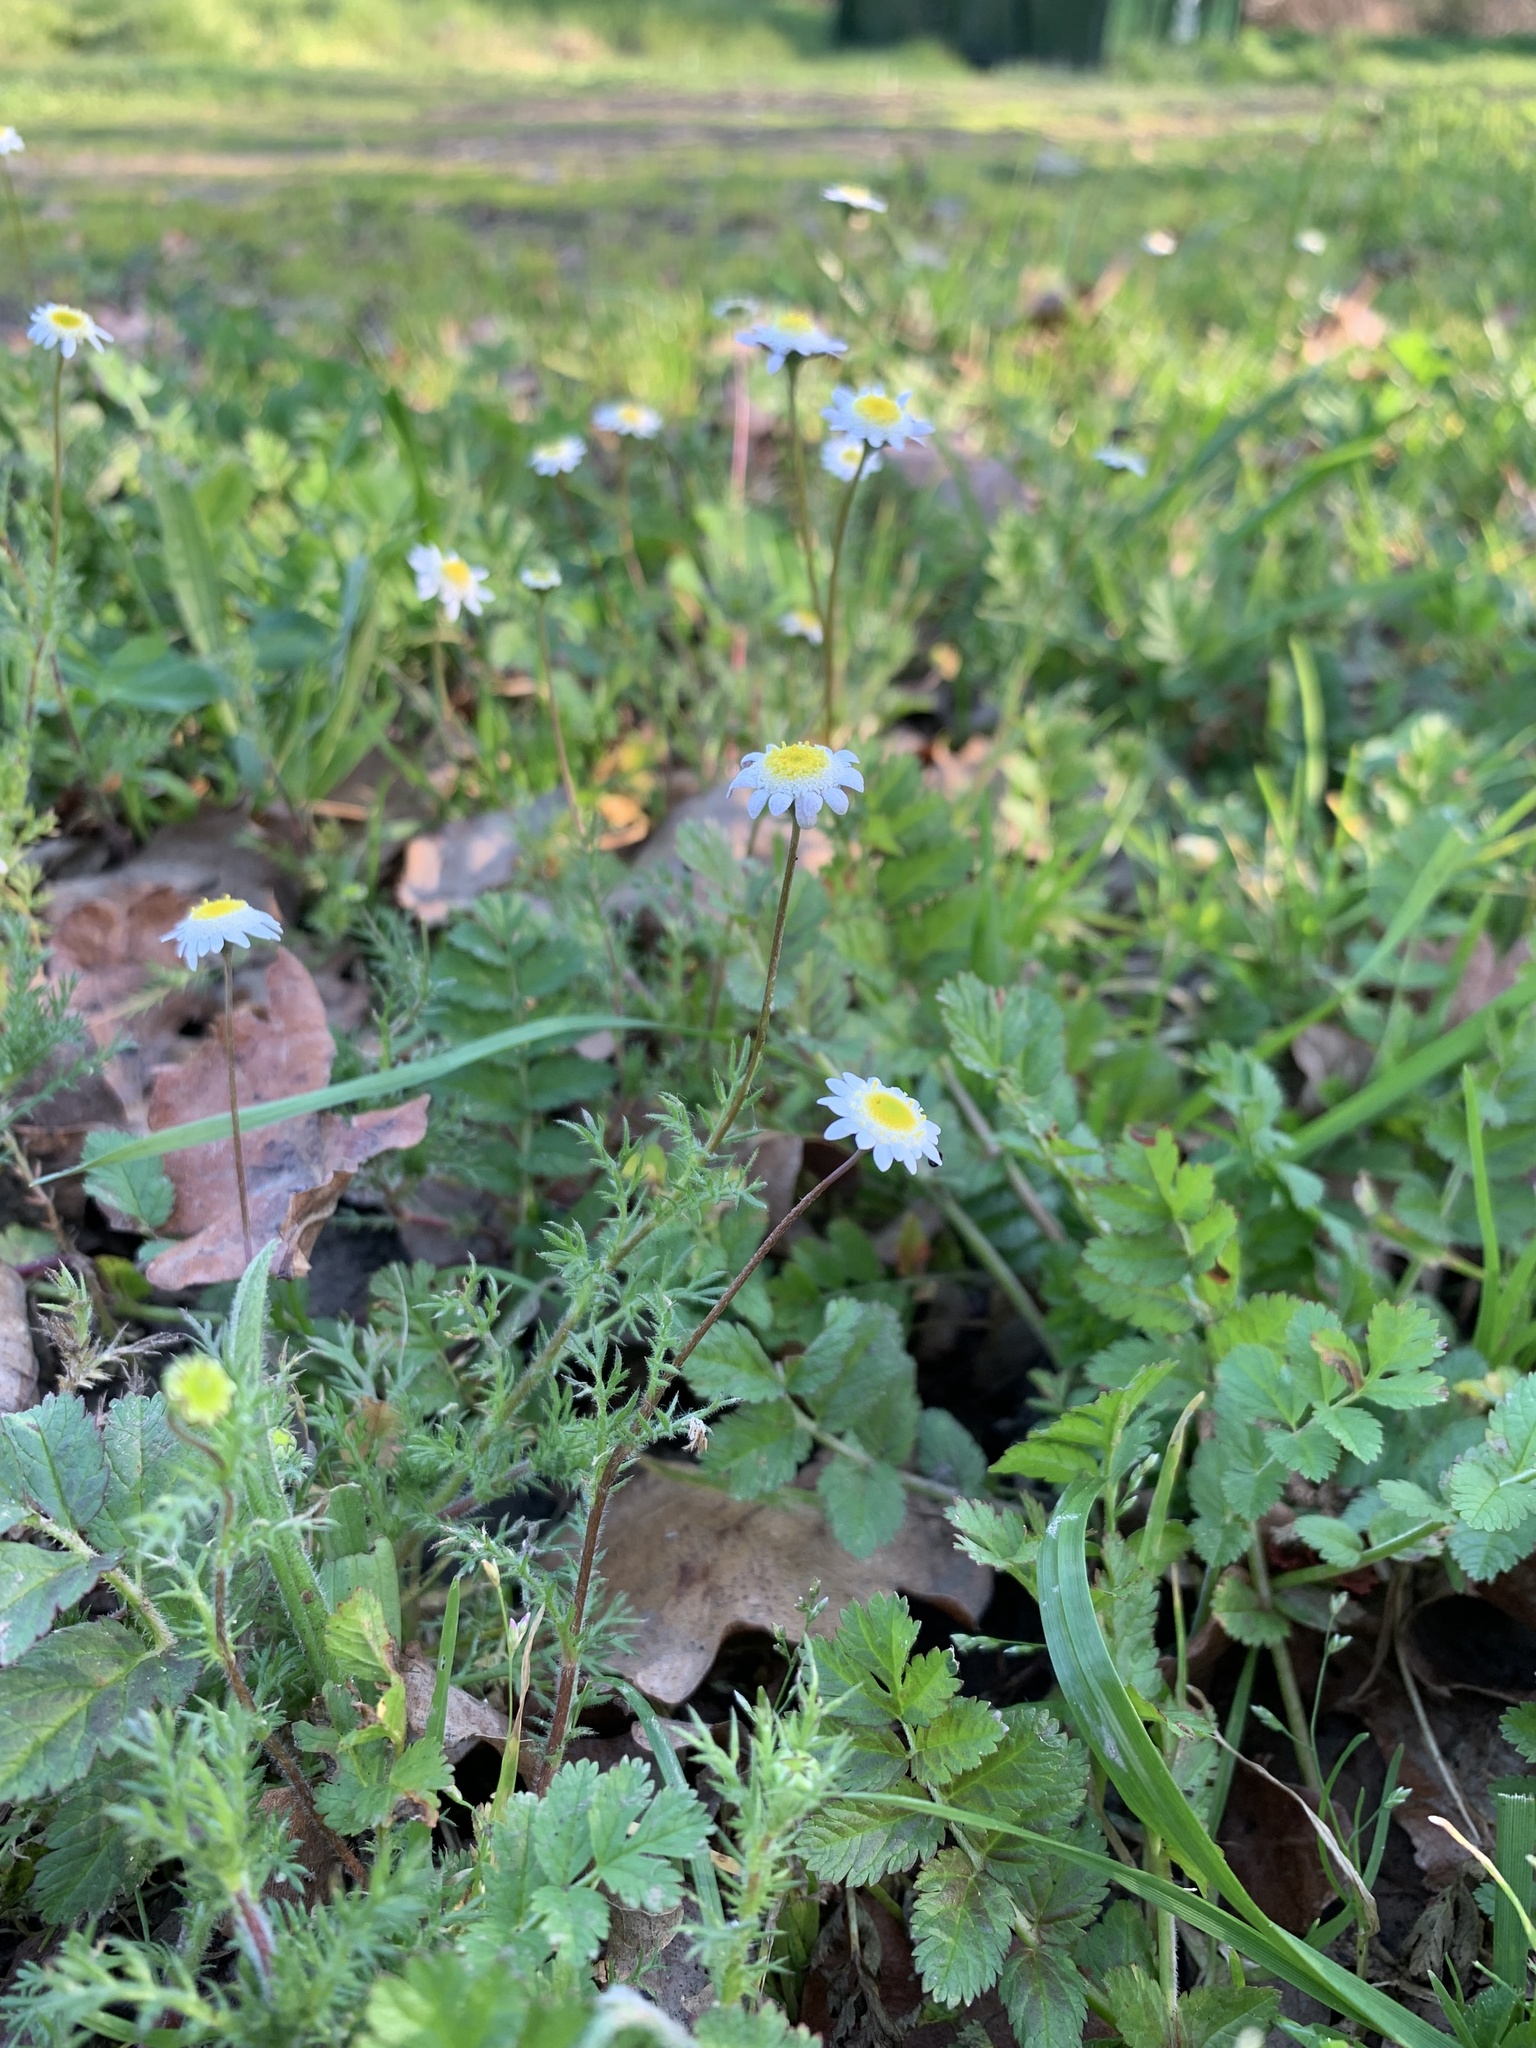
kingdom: Plantae
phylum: Tracheophyta
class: Magnoliopsida
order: Asterales
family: Asteraceae
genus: Cotula
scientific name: Cotula turbinata
